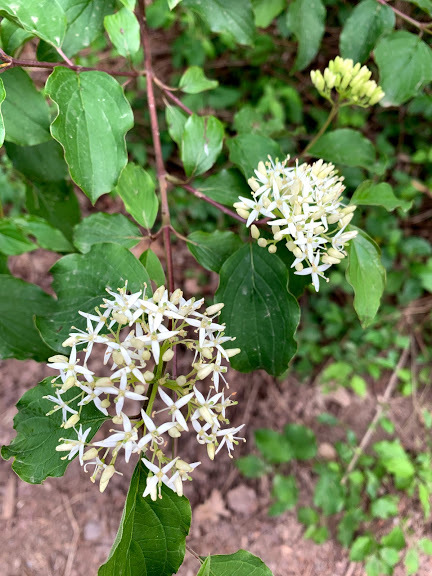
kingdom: Plantae
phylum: Tracheophyta
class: Magnoliopsida
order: Cornales
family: Cornaceae
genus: Cornus
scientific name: Cornus sanguinea
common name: Dogwood
